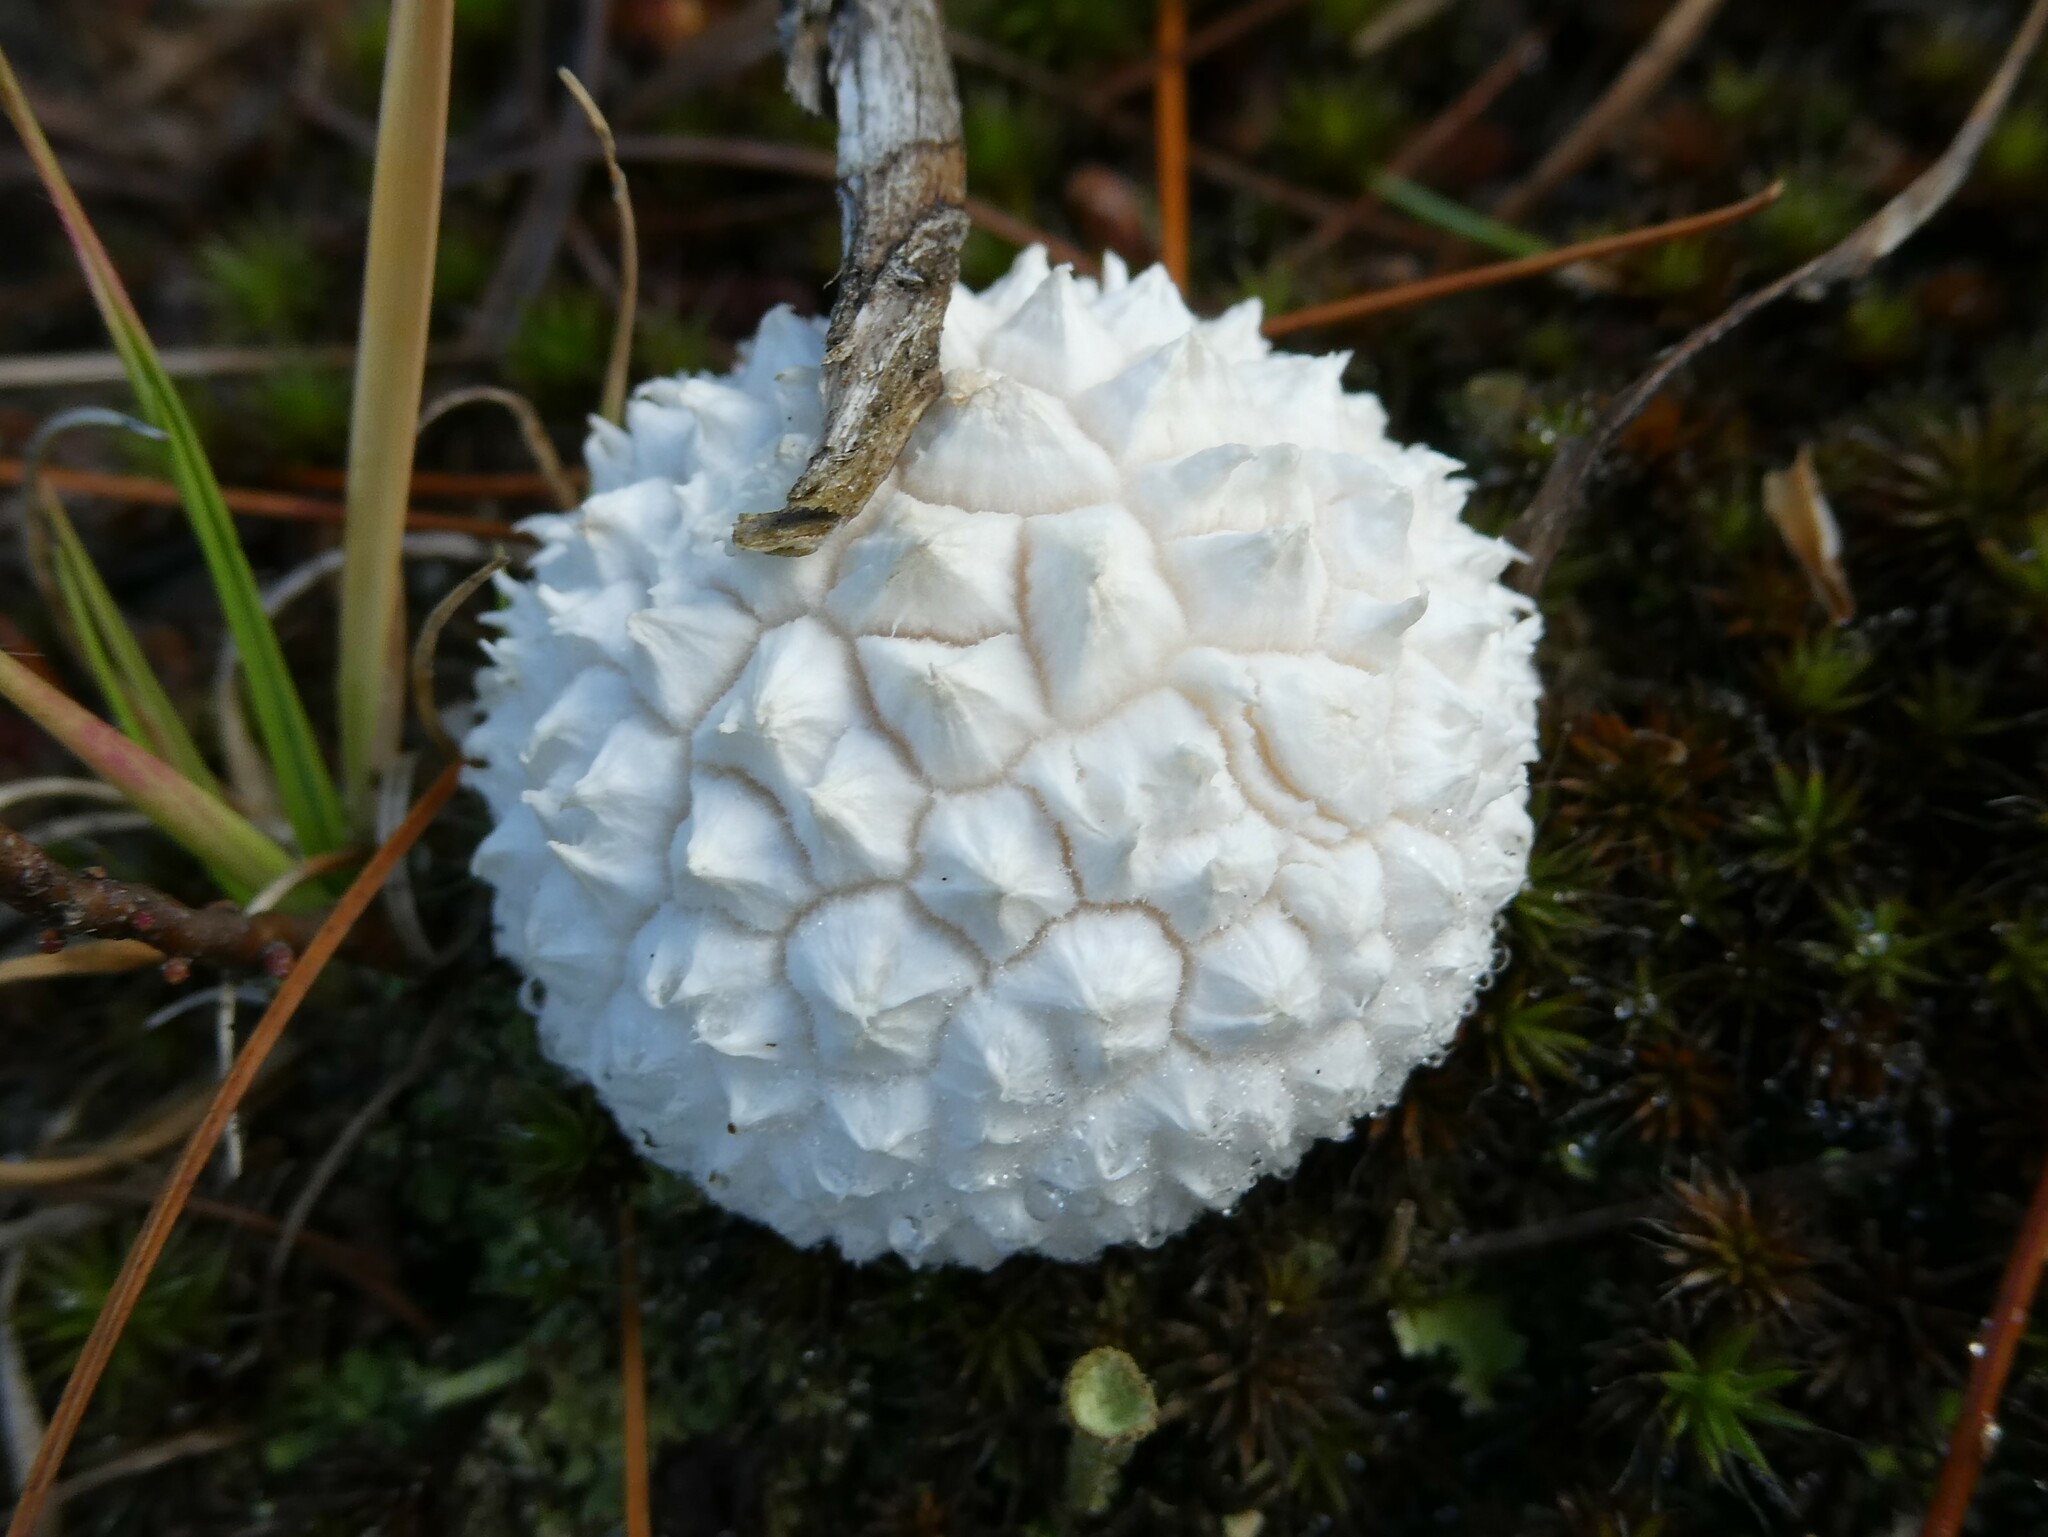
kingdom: Fungi
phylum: Basidiomycota
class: Agaricomycetes
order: Agaricales
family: Agaricaceae
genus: Lycoperdon
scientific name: Lycoperdon marginatum
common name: Peeling puffball
